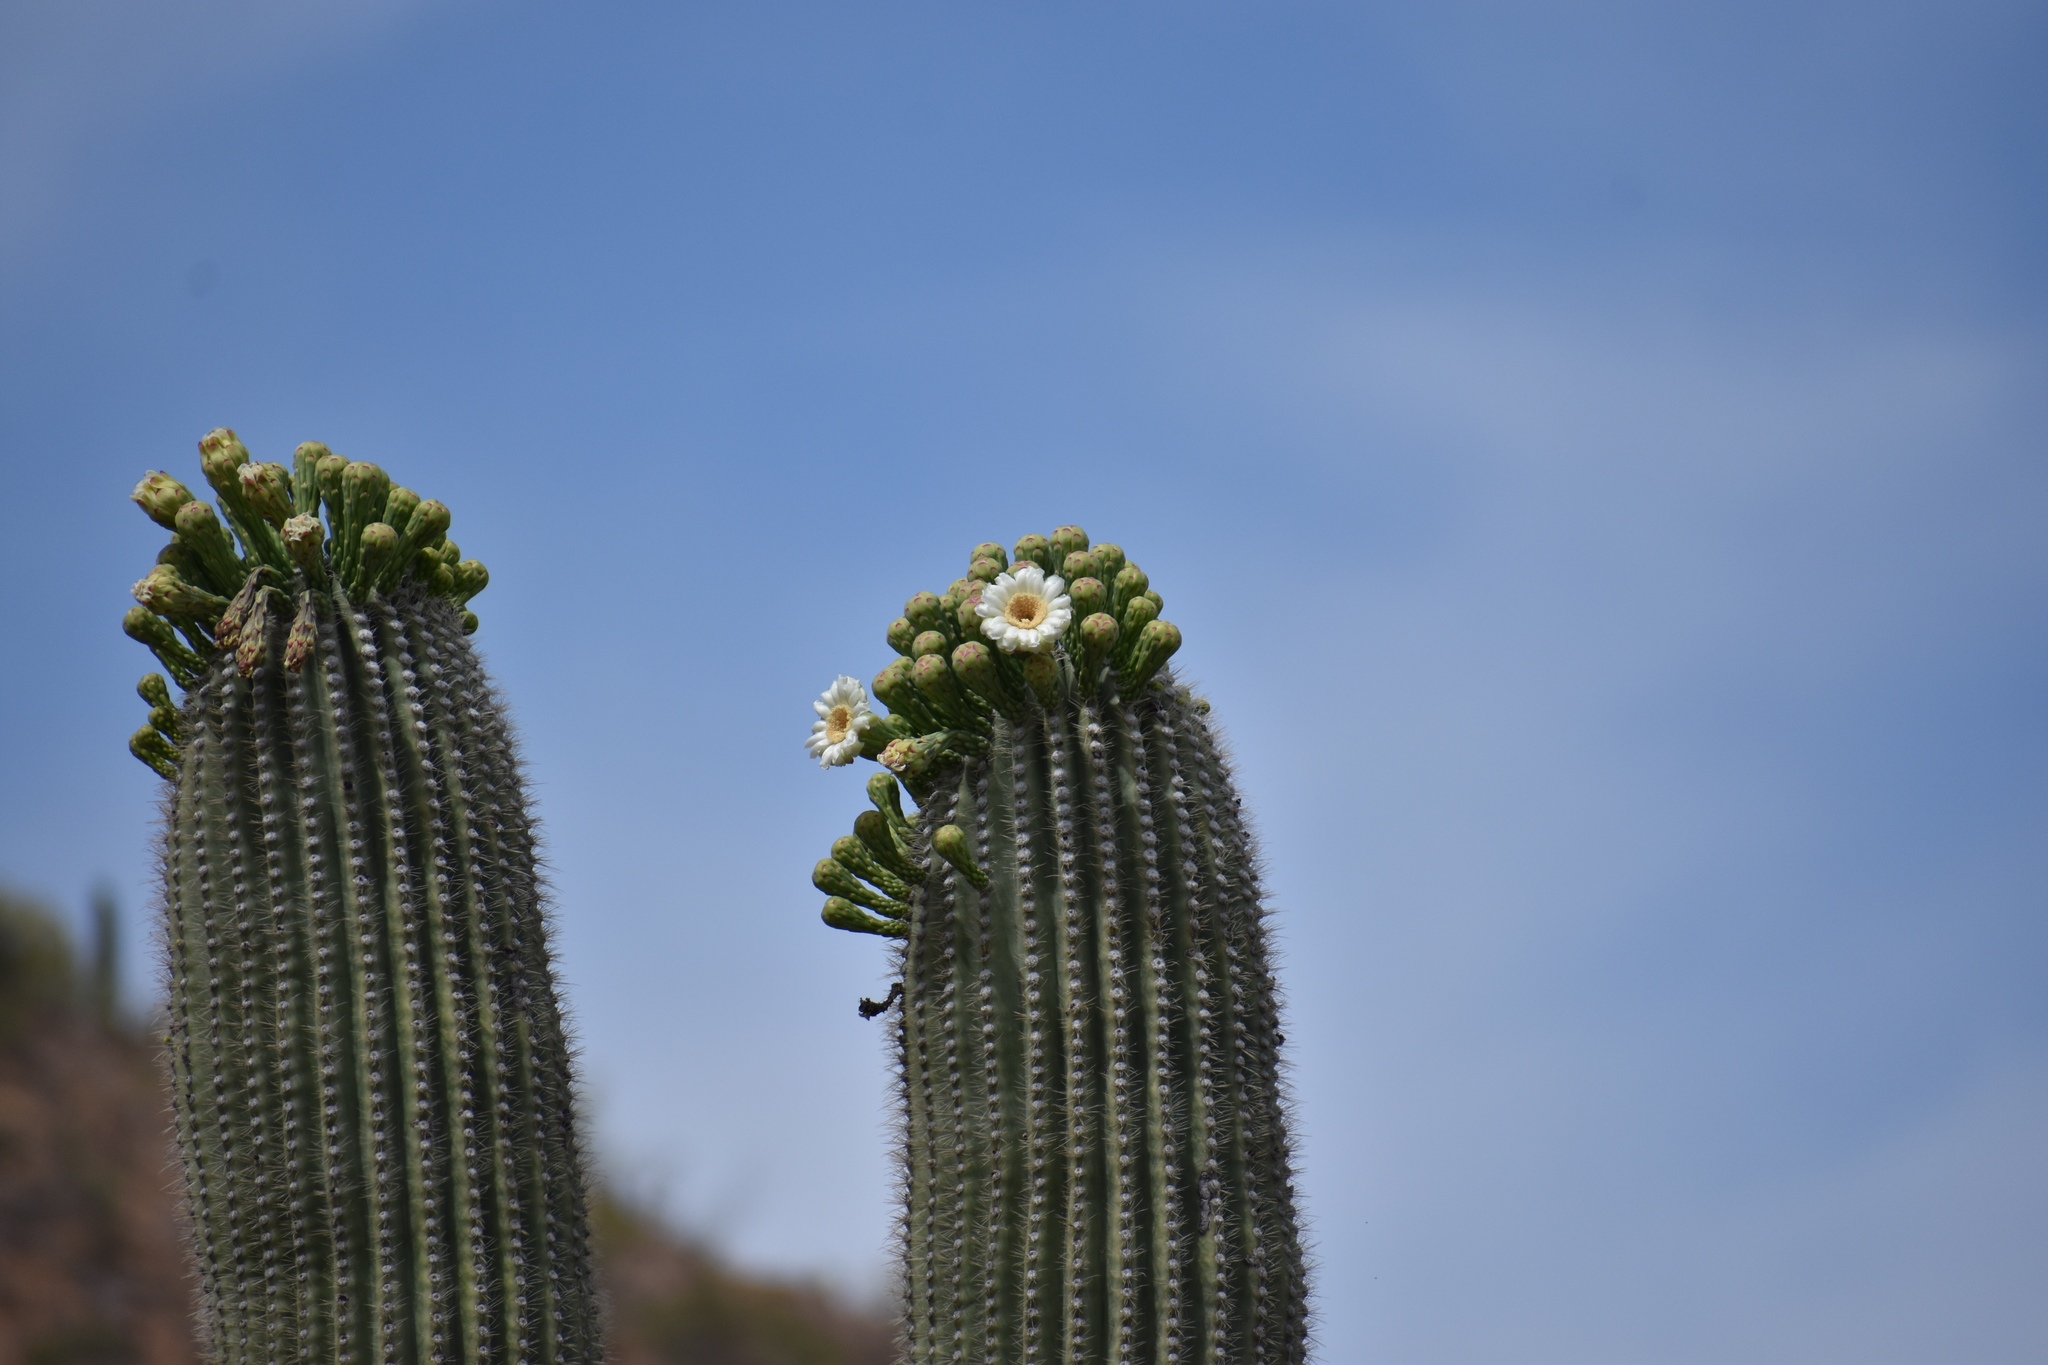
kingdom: Plantae
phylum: Tracheophyta
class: Magnoliopsida
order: Caryophyllales
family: Cactaceae
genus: Carnegiea
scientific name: Carnegiea gigantea
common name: Saguaro
